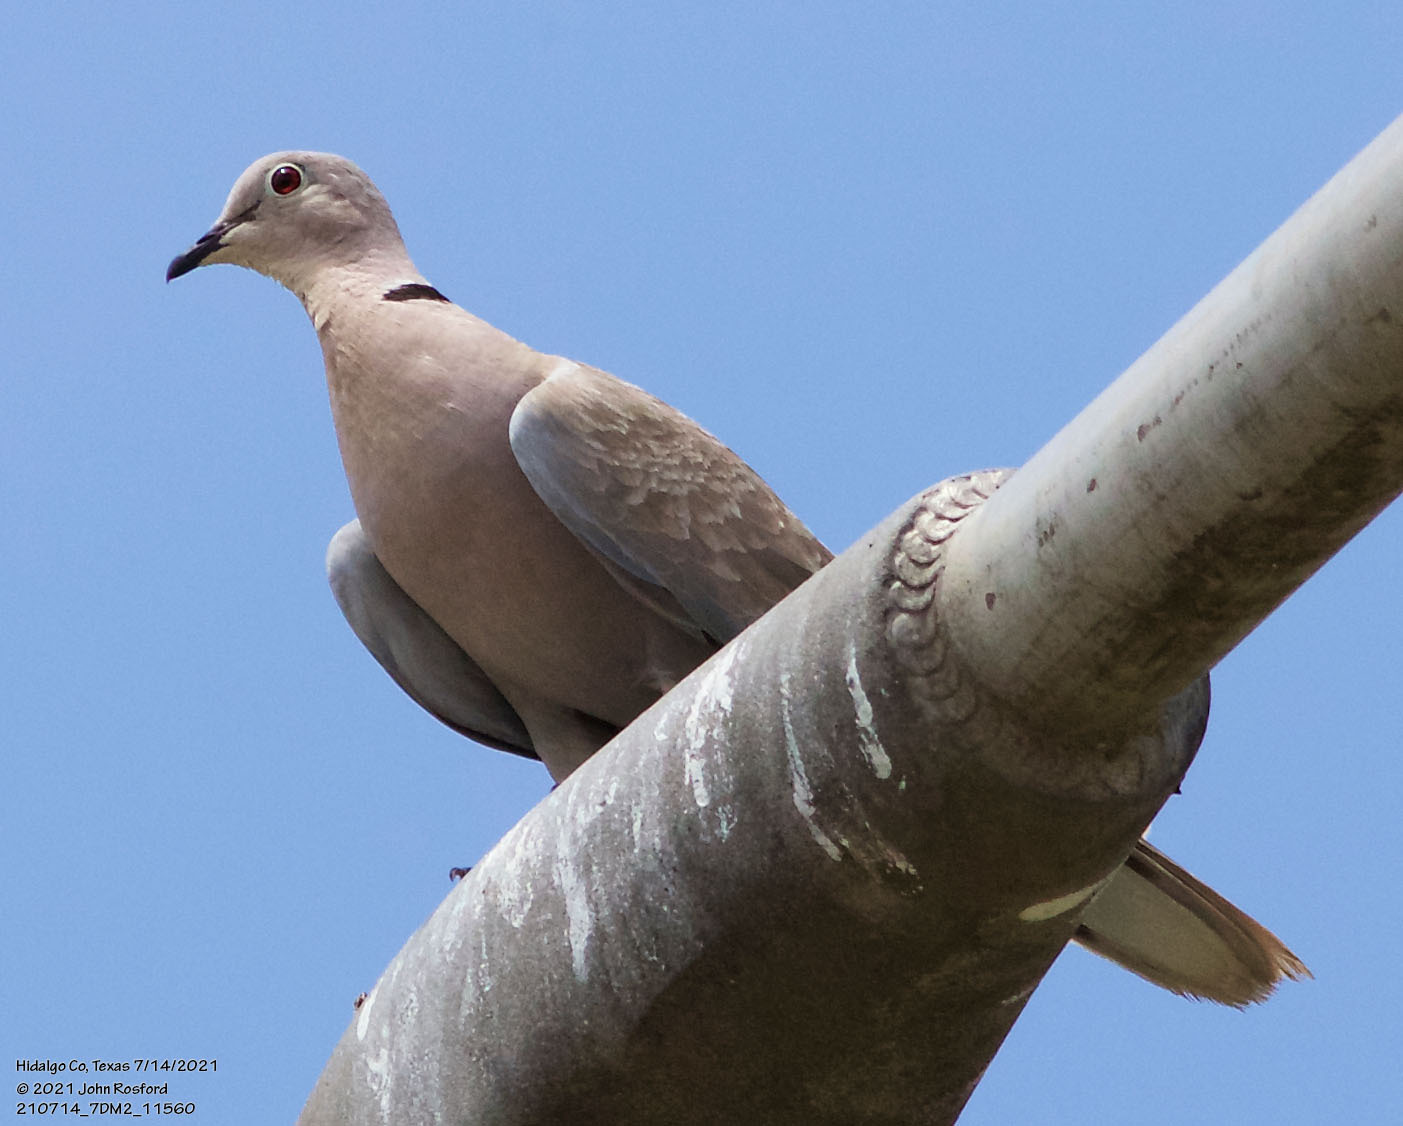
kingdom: Animalia
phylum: Chordata
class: Aves
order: Columbiformes
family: Columbidae
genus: Streptopelia
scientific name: Streptopelia decaocto
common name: Eurasian collared dove
